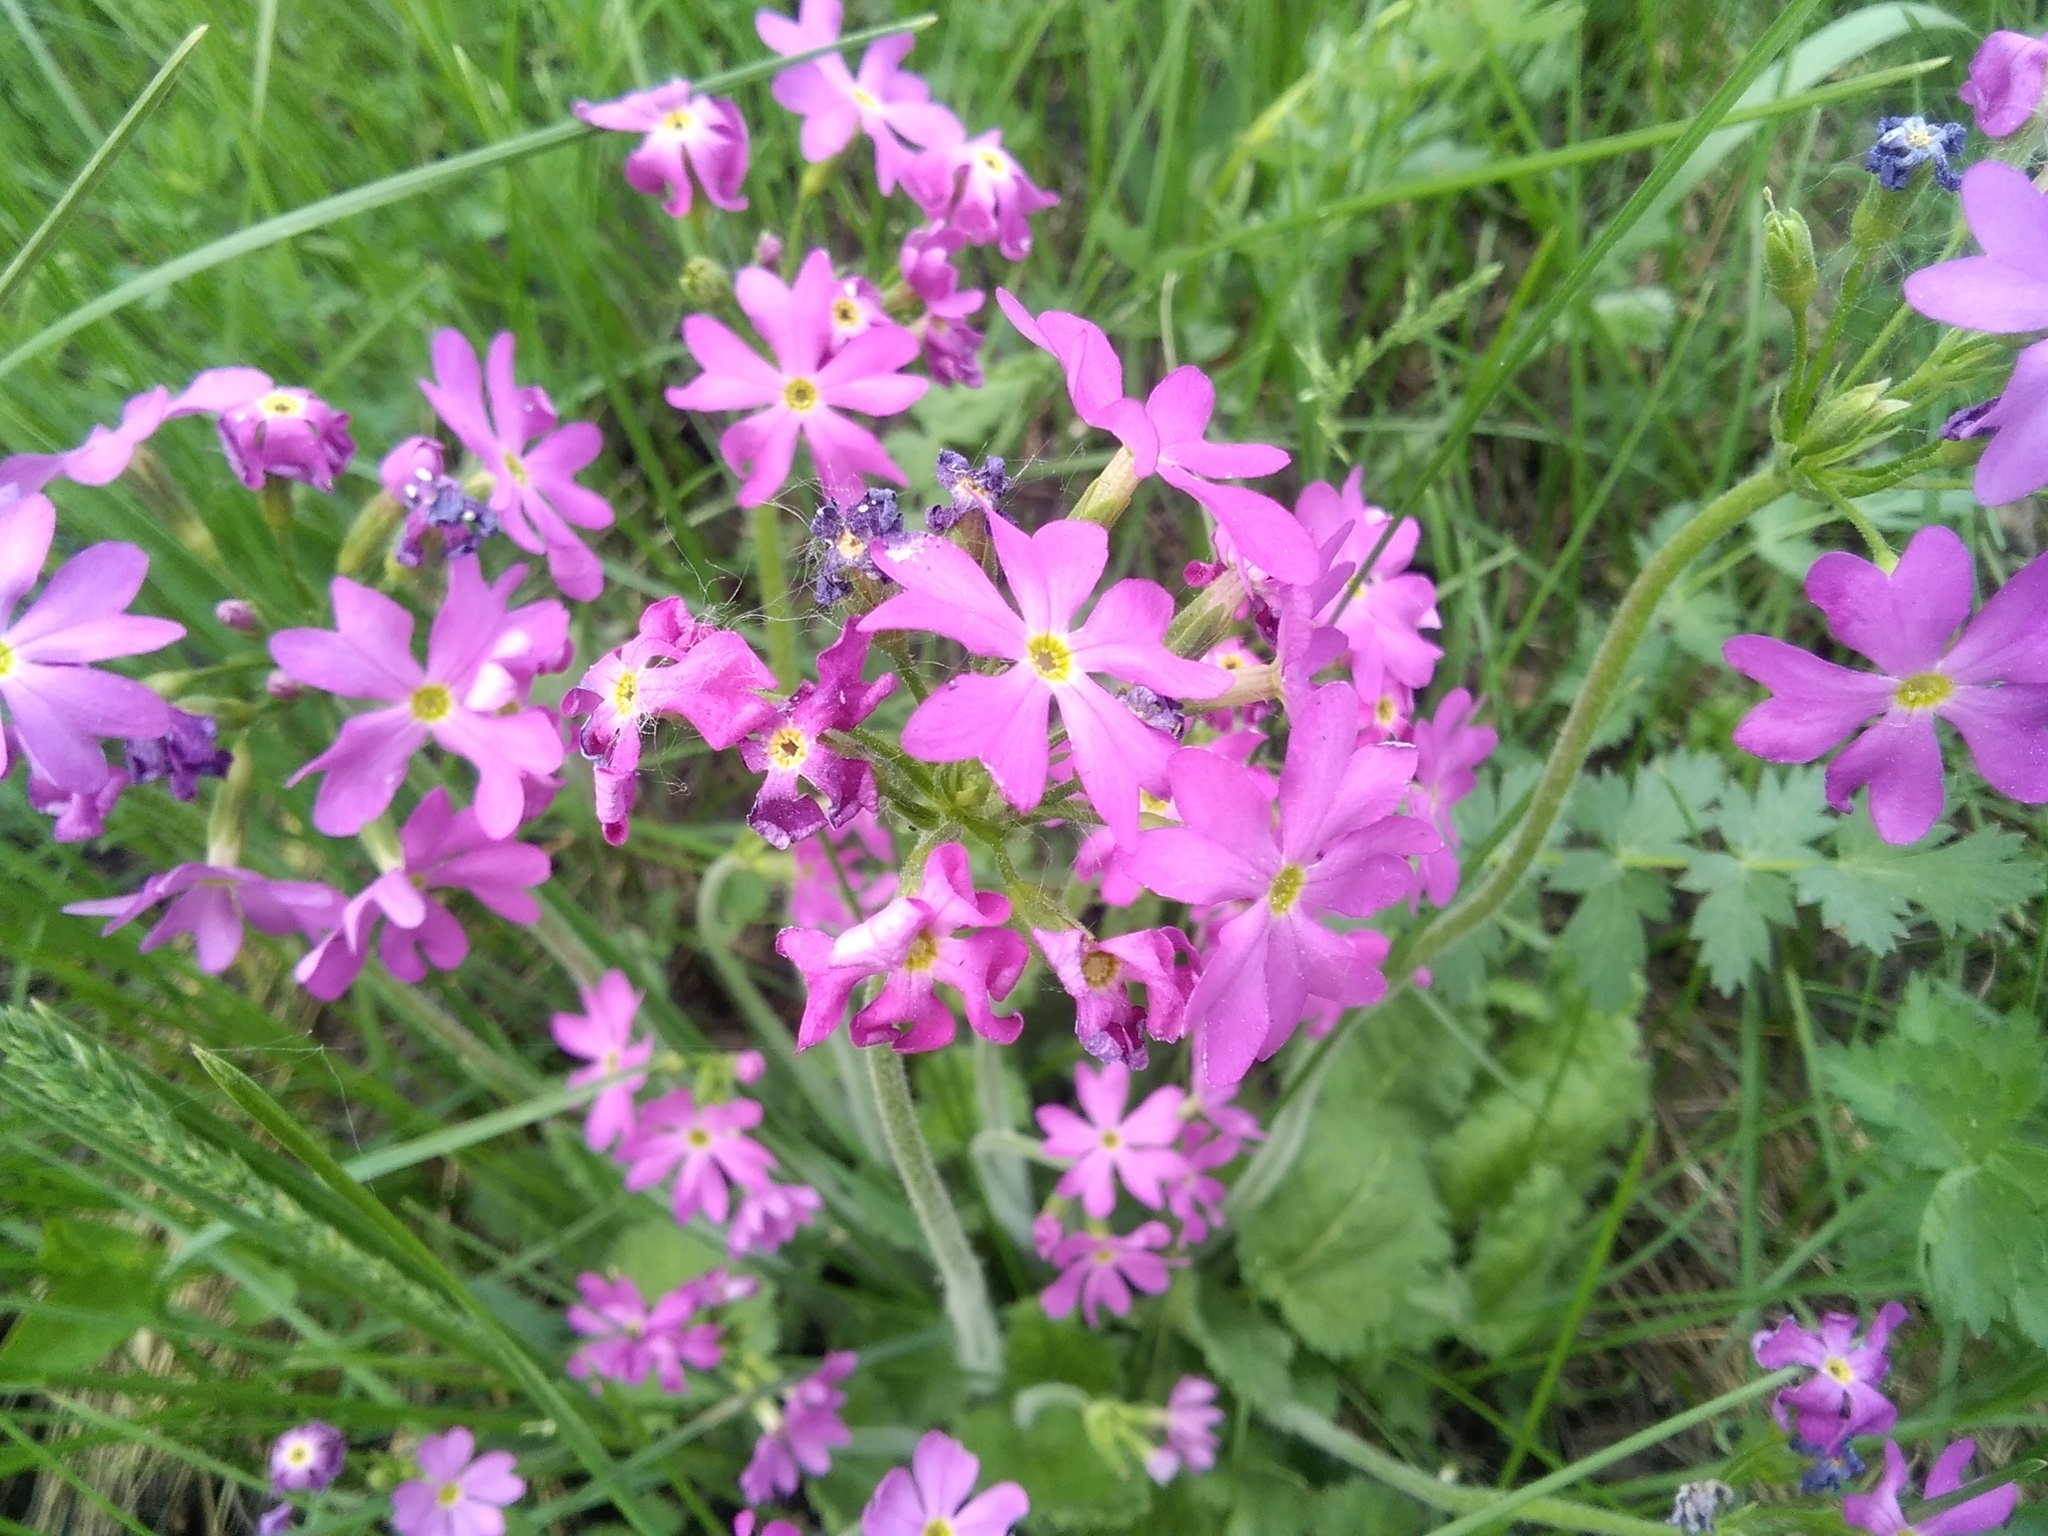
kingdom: Plantae
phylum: Tracheophyta
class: Magnoliopsida
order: Ericales
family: Primulaceae
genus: Primula
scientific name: Primula cortusoides
